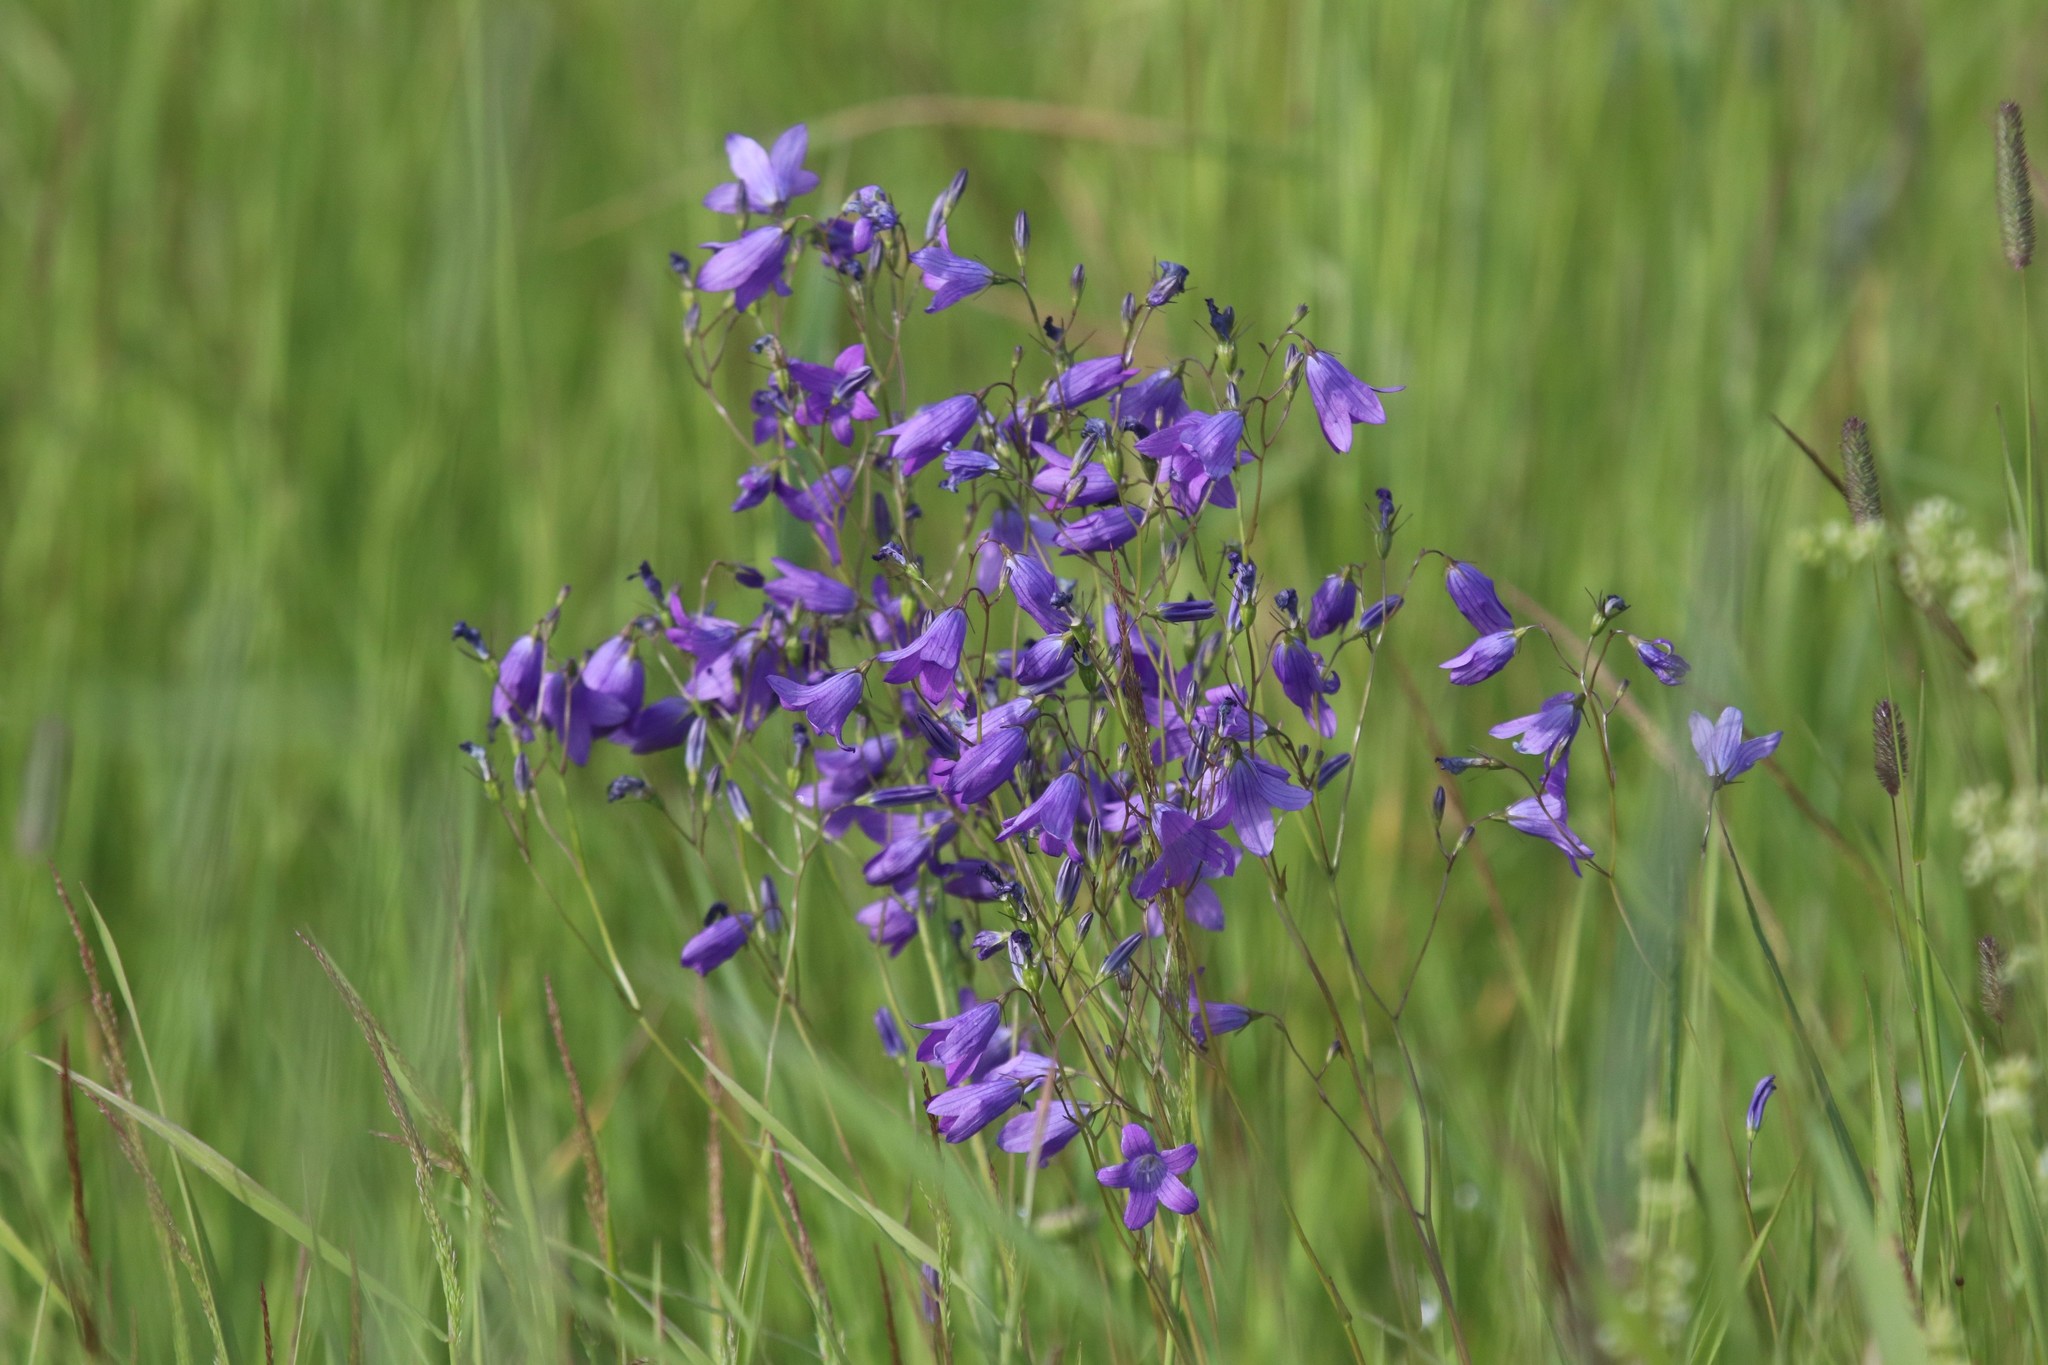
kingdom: Plantae
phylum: Tracheophyta
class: Magnoliopsida
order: Asterales
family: Campanulaceae
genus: Campanula
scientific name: Campanula patula
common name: Spreading bellflower
